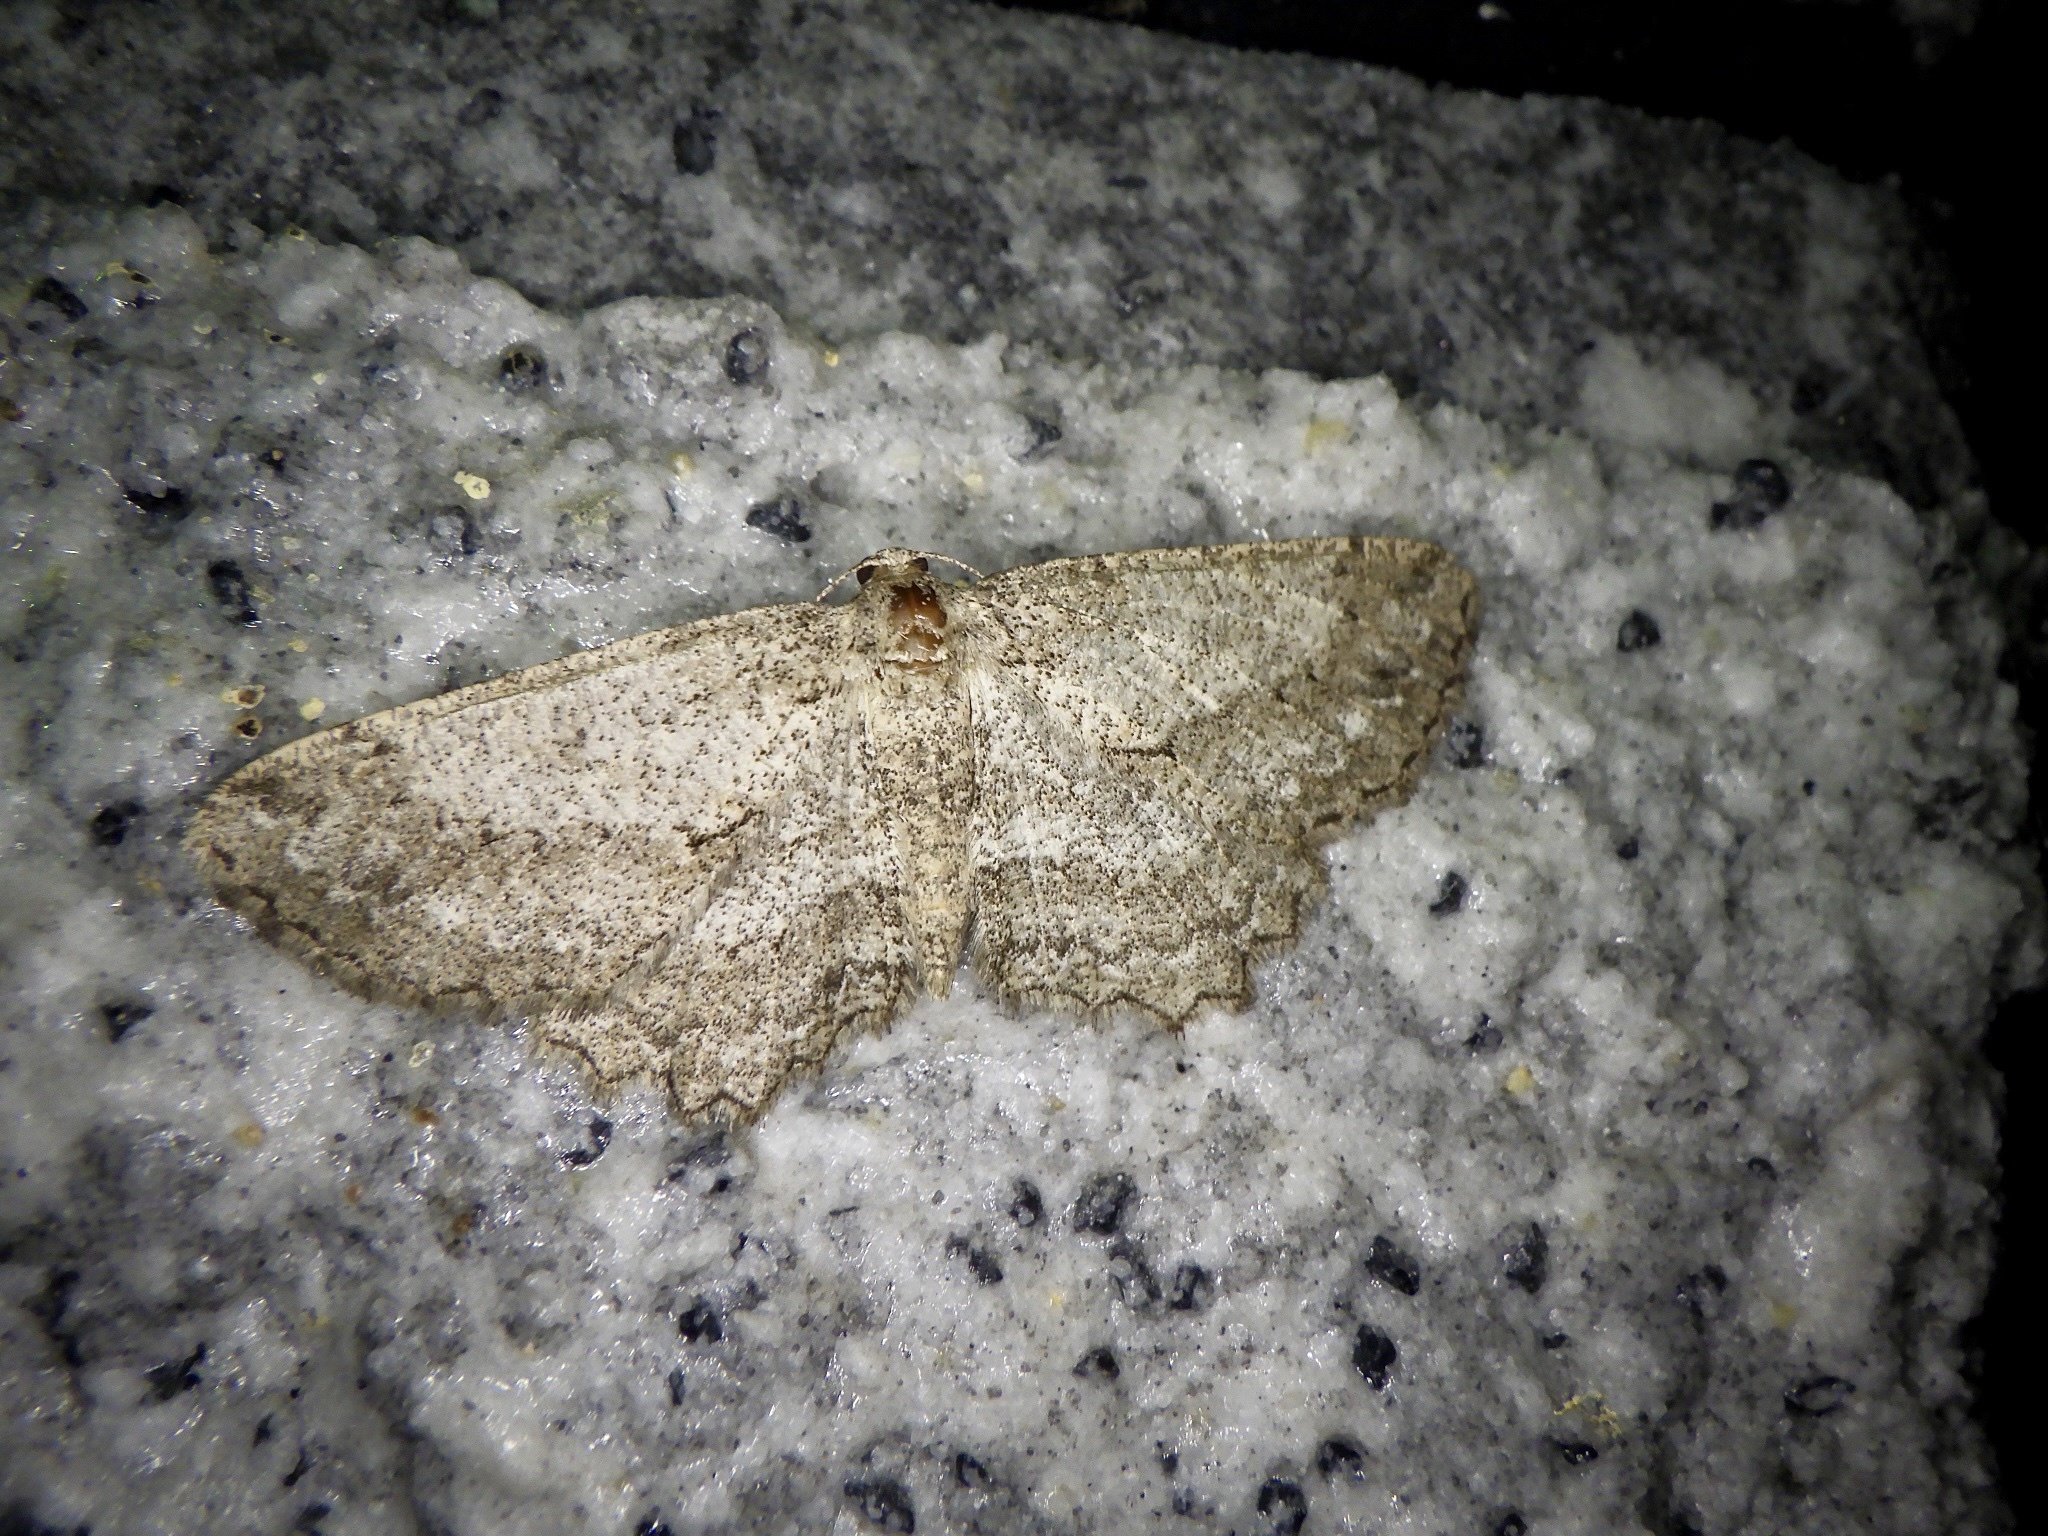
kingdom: Animalia
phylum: Arthropoda
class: Insecta
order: Lepidoptera
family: Geometridae
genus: Hypomecis
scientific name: Hypomecis crassestrigata
